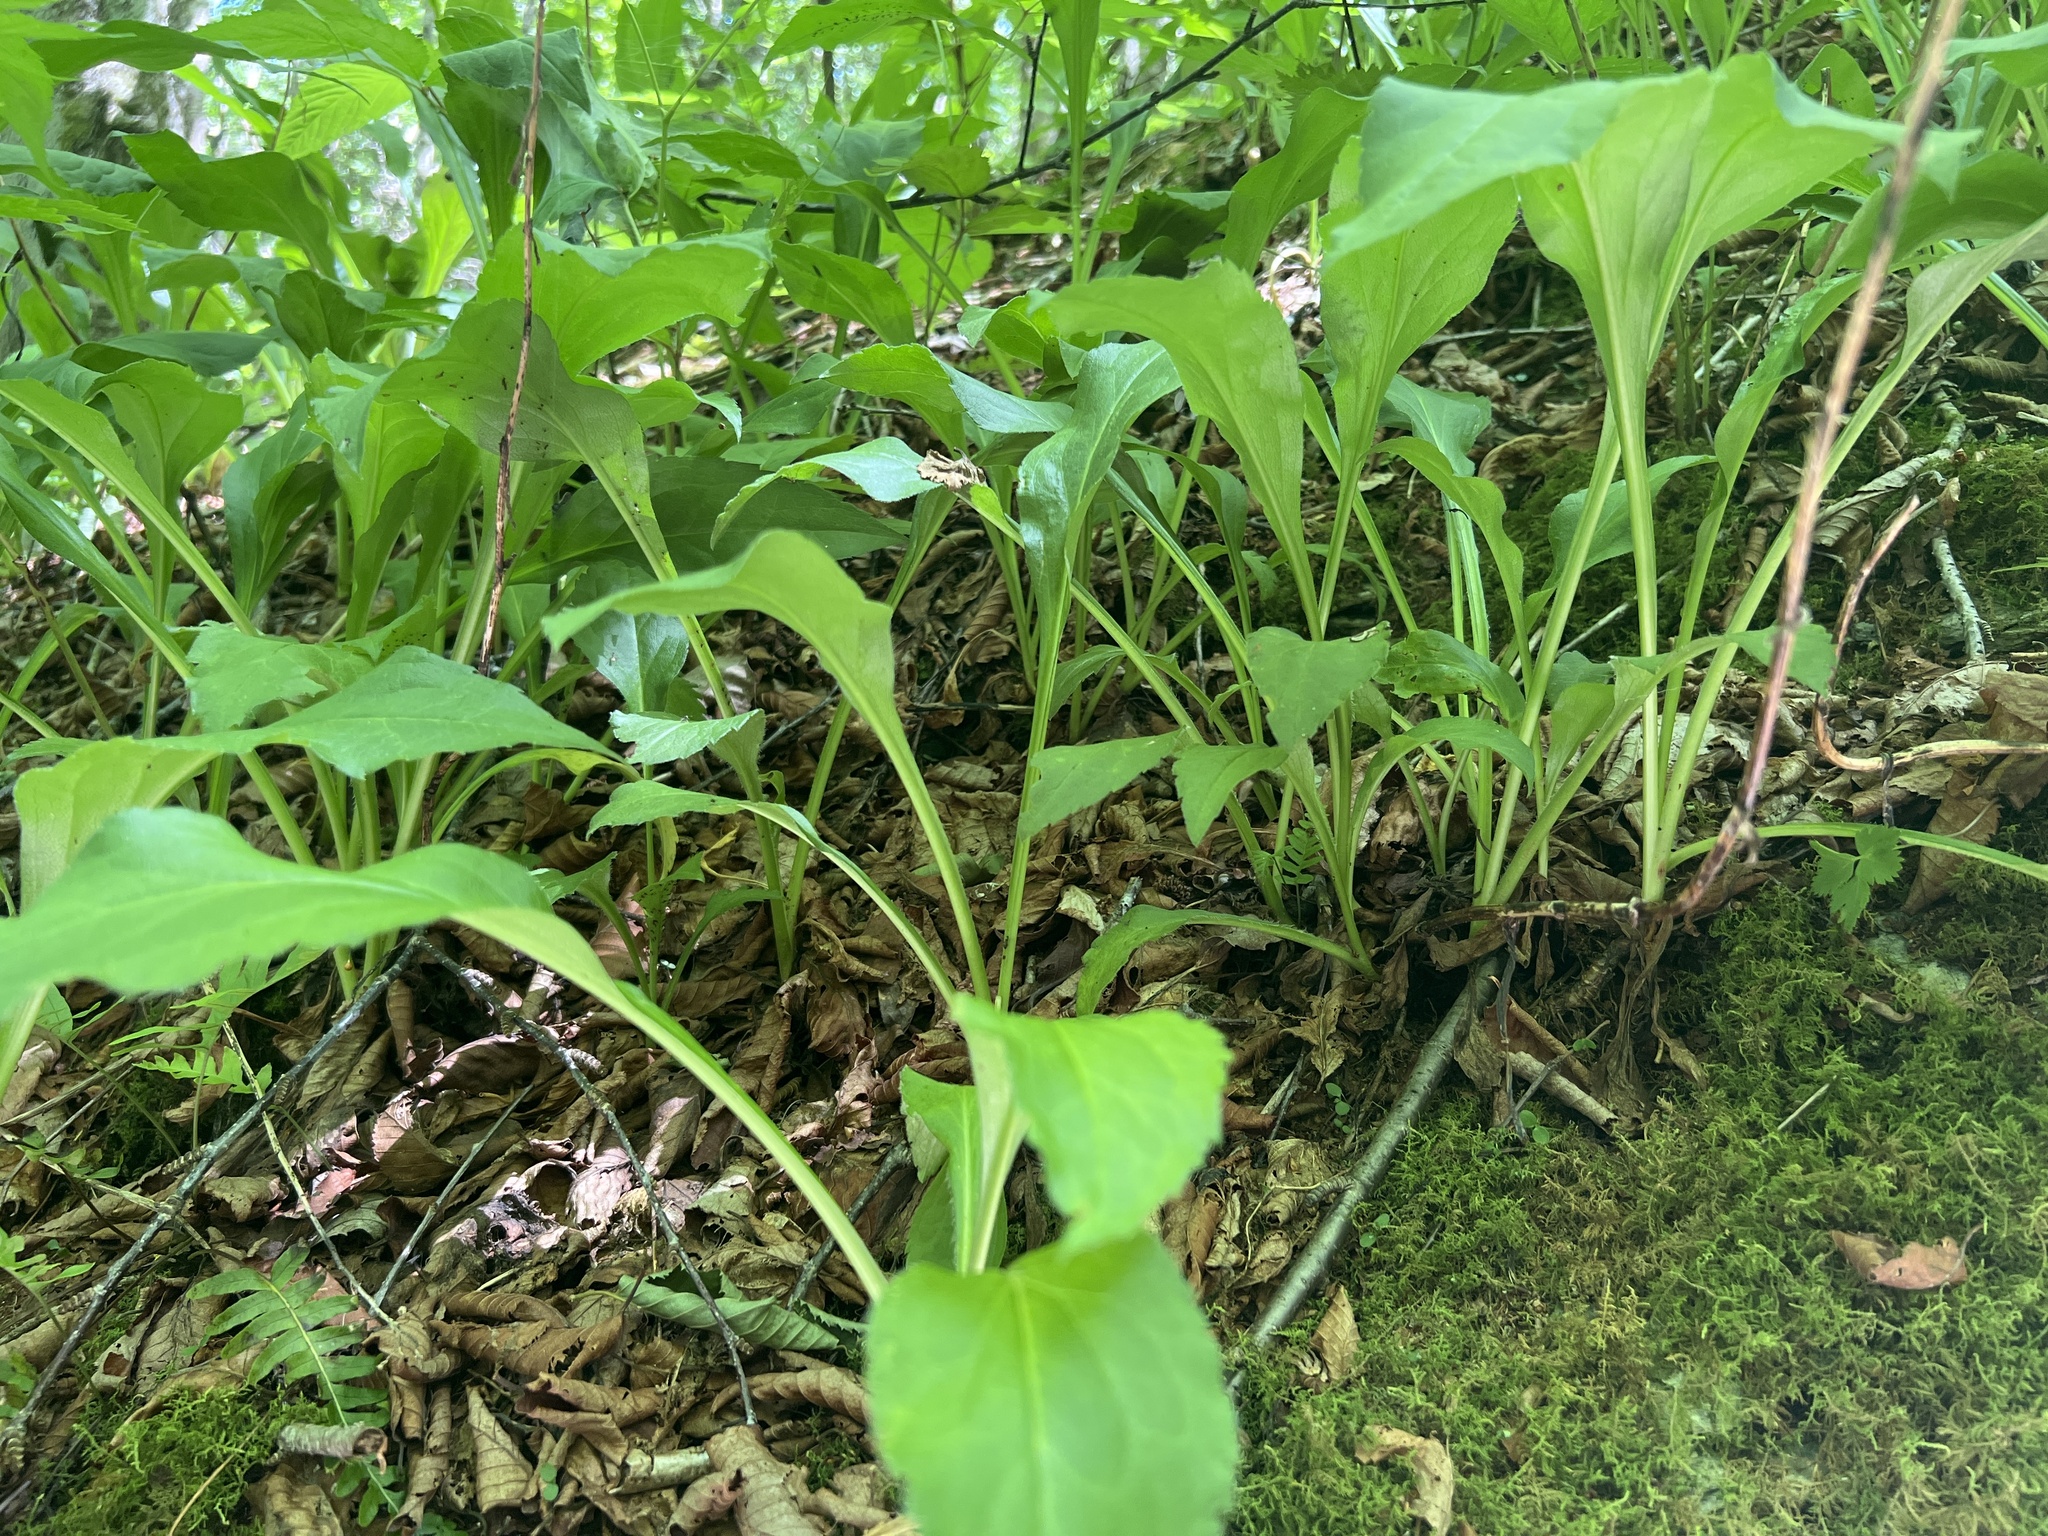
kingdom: Plantae
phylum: Tracheophyta
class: Magnoliopsida
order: Asterales
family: Asteraceae
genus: Solidago
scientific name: Solidago glomerata
